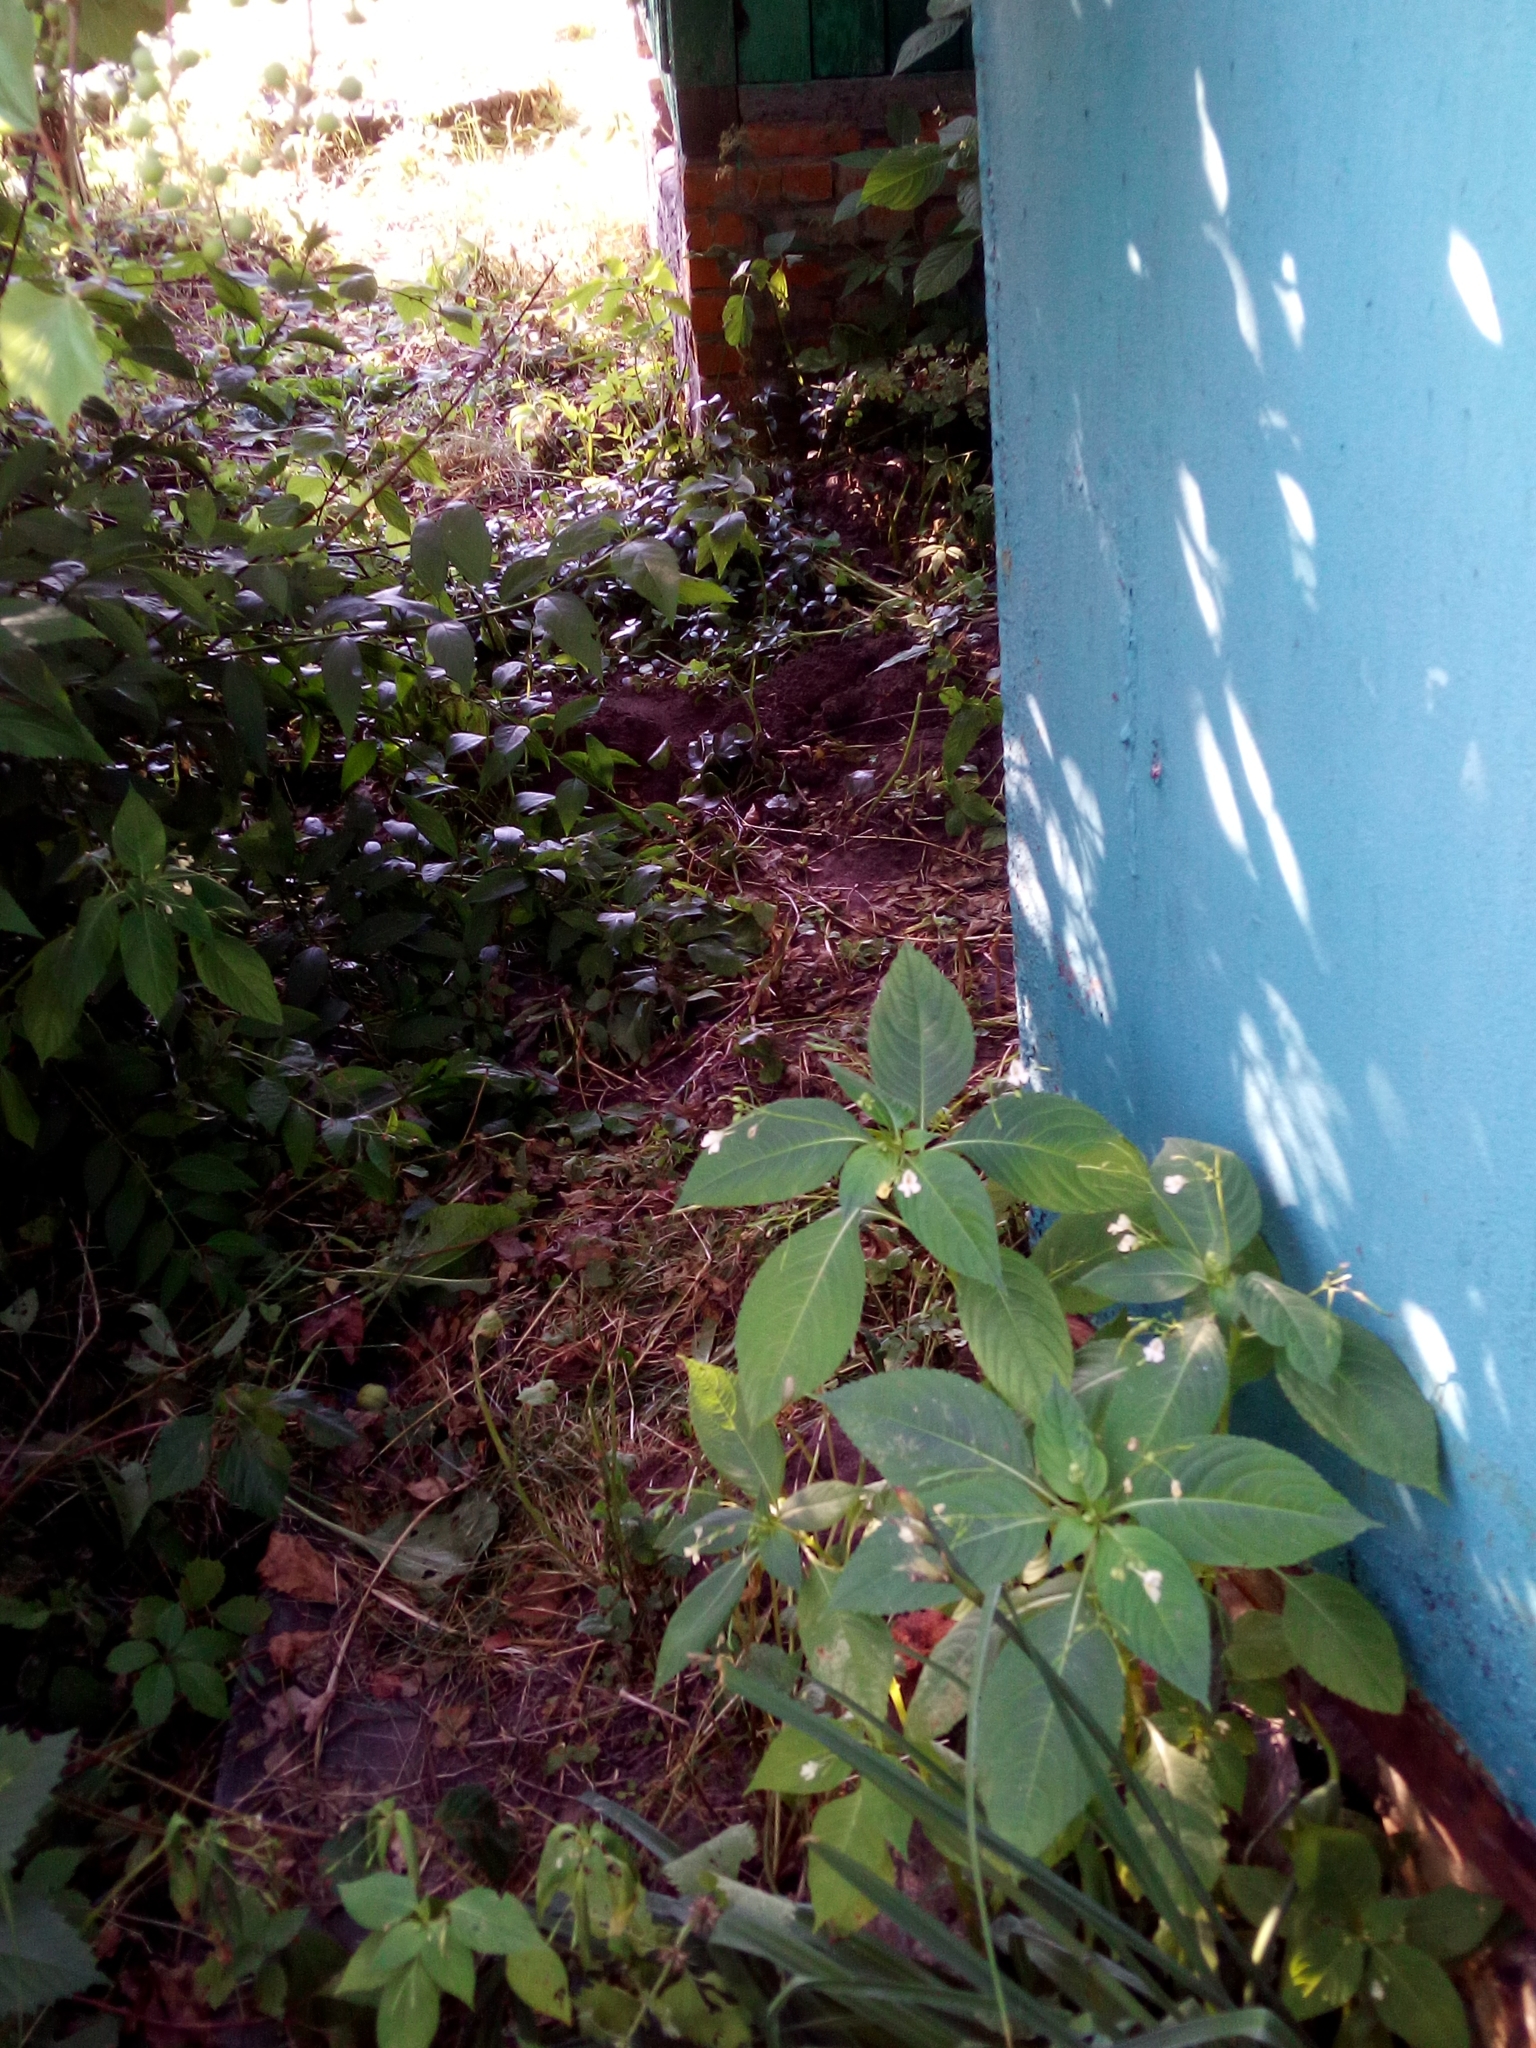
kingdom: Plantae
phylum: Tracheophyta
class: Magnoliopsida
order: Ericales
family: Balsaminaceae
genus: Impatiens
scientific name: Impatiens parviflora
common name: Small balsam
